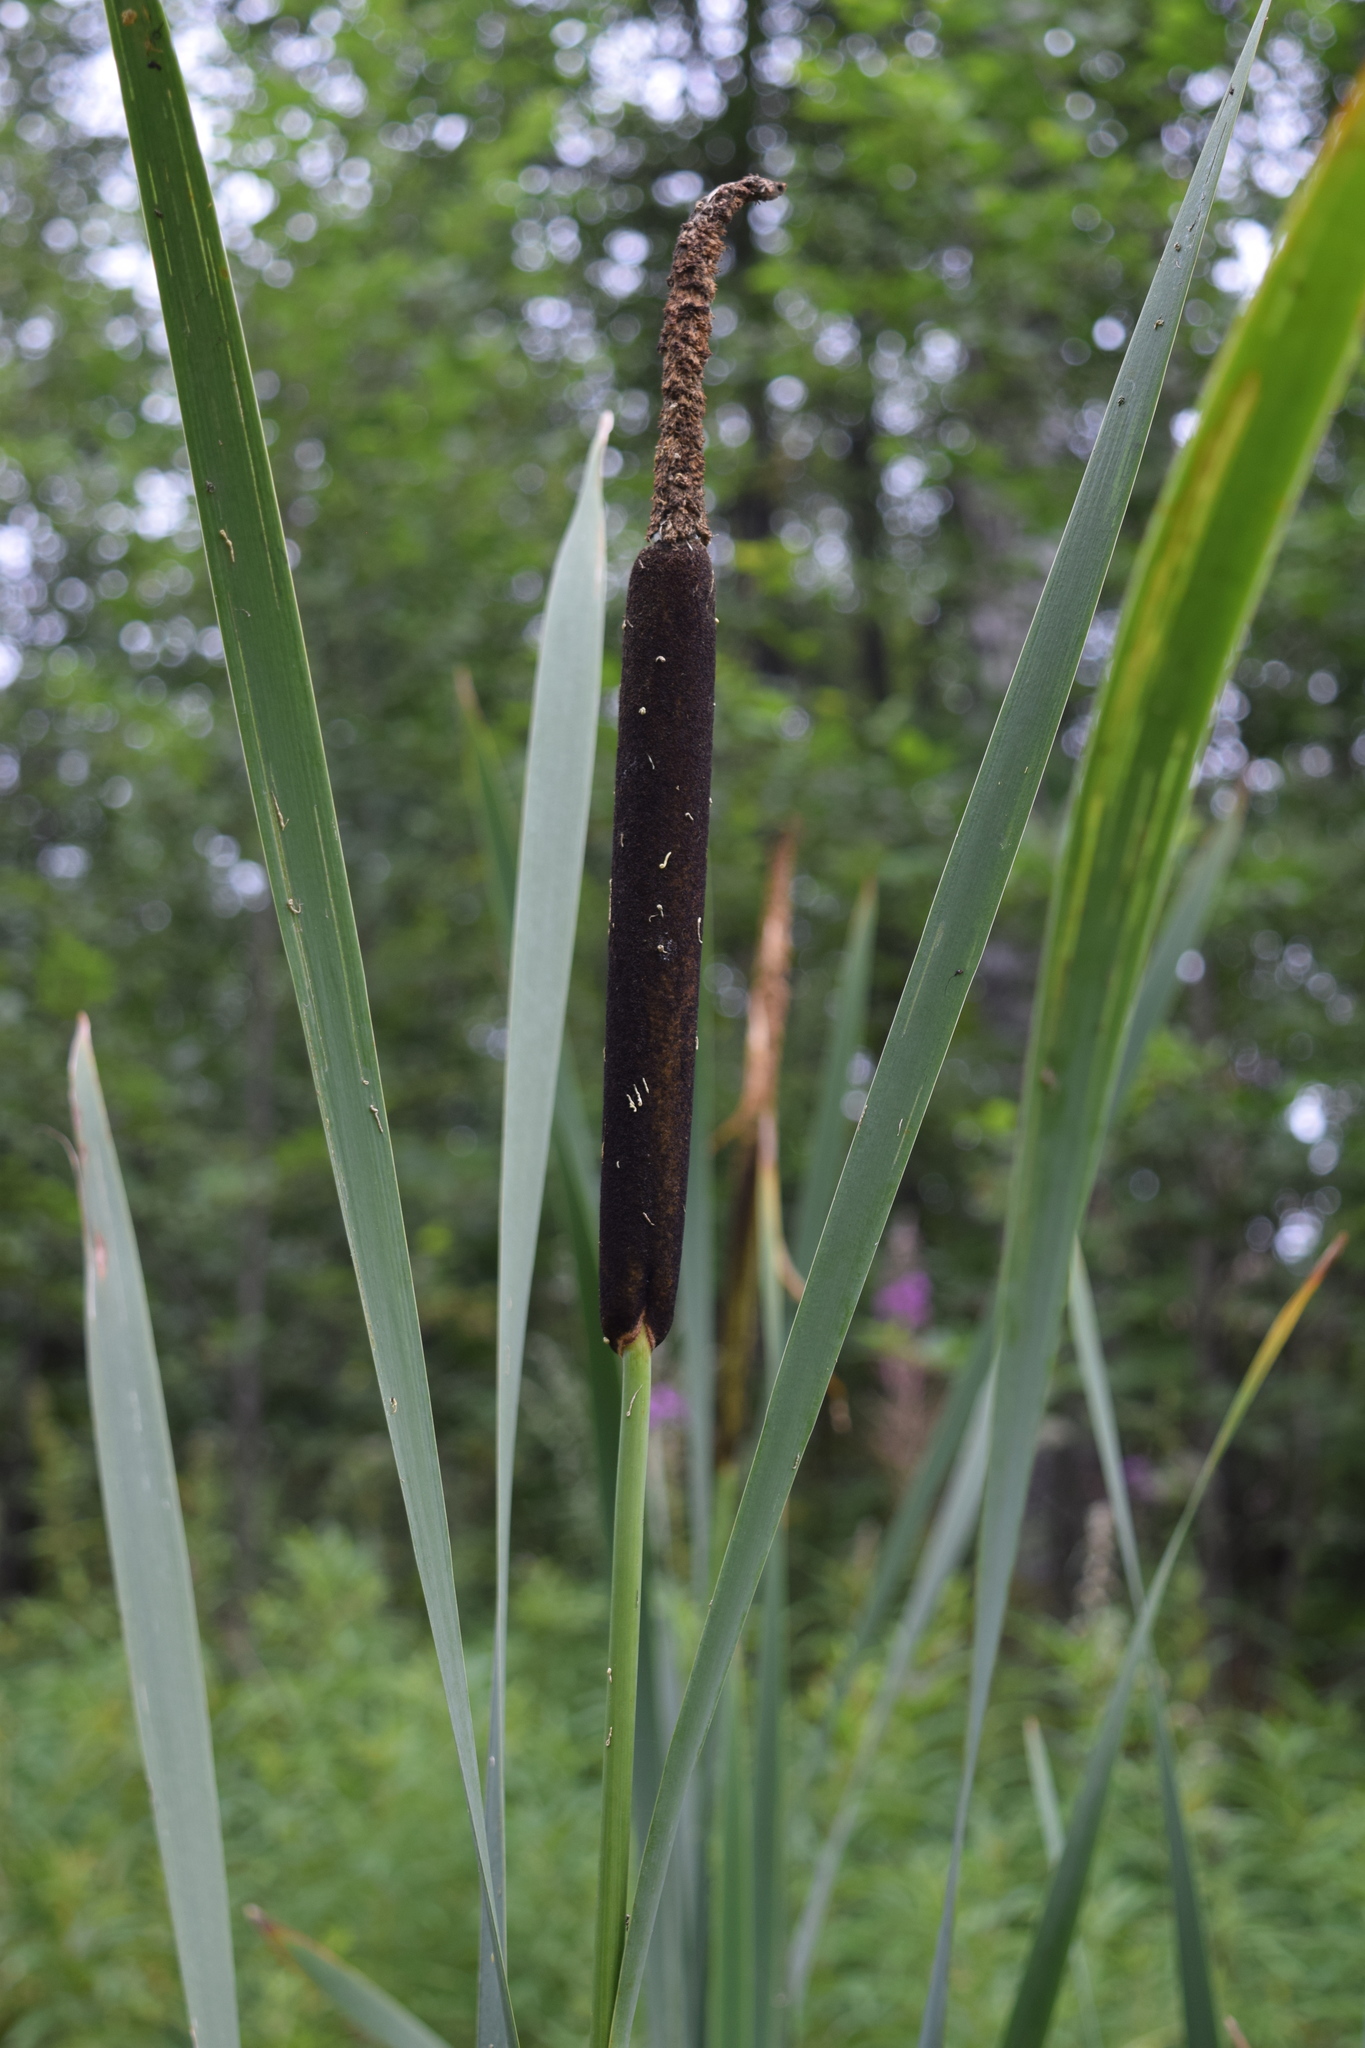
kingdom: Plantae
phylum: Tracheophyta
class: Liliopsida
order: Poales
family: Typhaceae
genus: Typha
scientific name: Typha latifolia
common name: Broadleaf cattail
